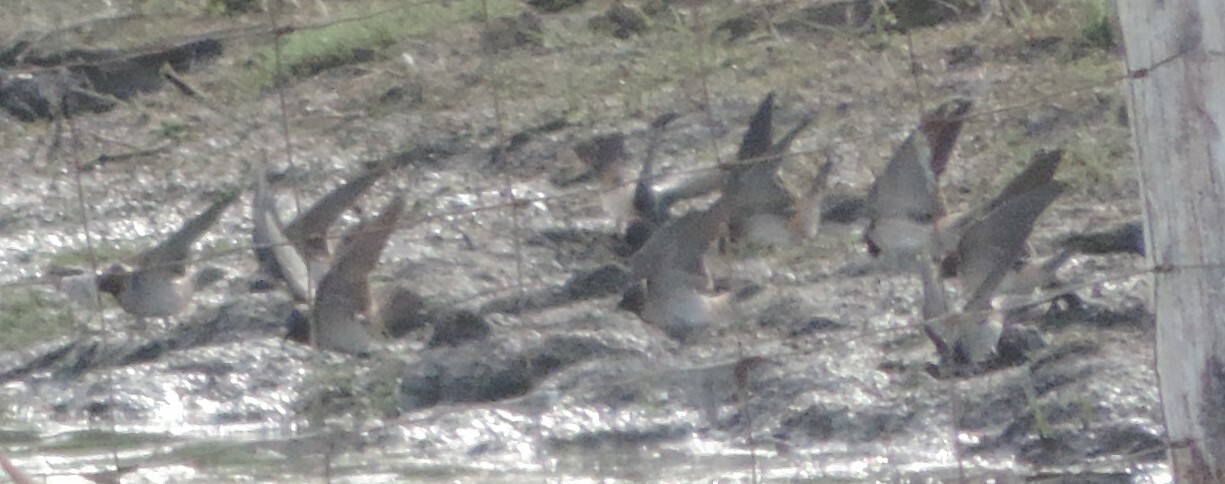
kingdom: Animalia
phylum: Chordata
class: Aves
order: Passeriformes
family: Hirundinidae
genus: Petrochelidon
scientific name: Petrochelidon pyrrhonota
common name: American cliff swallow
